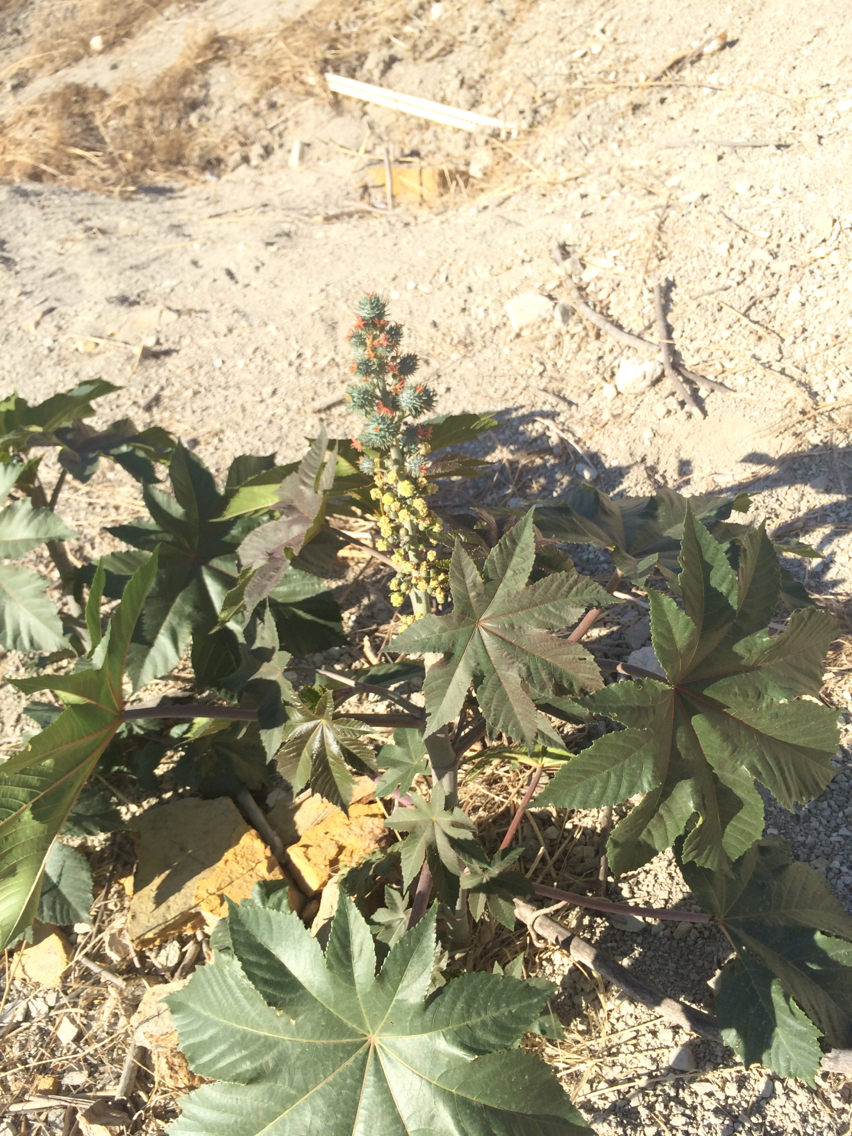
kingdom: Plantae
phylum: Tracheophyta
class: Magnoliopsida
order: Malpighiales
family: Euphorbiaceae
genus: Ricinus
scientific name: Ricinus communis
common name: Castor-oil-plant
